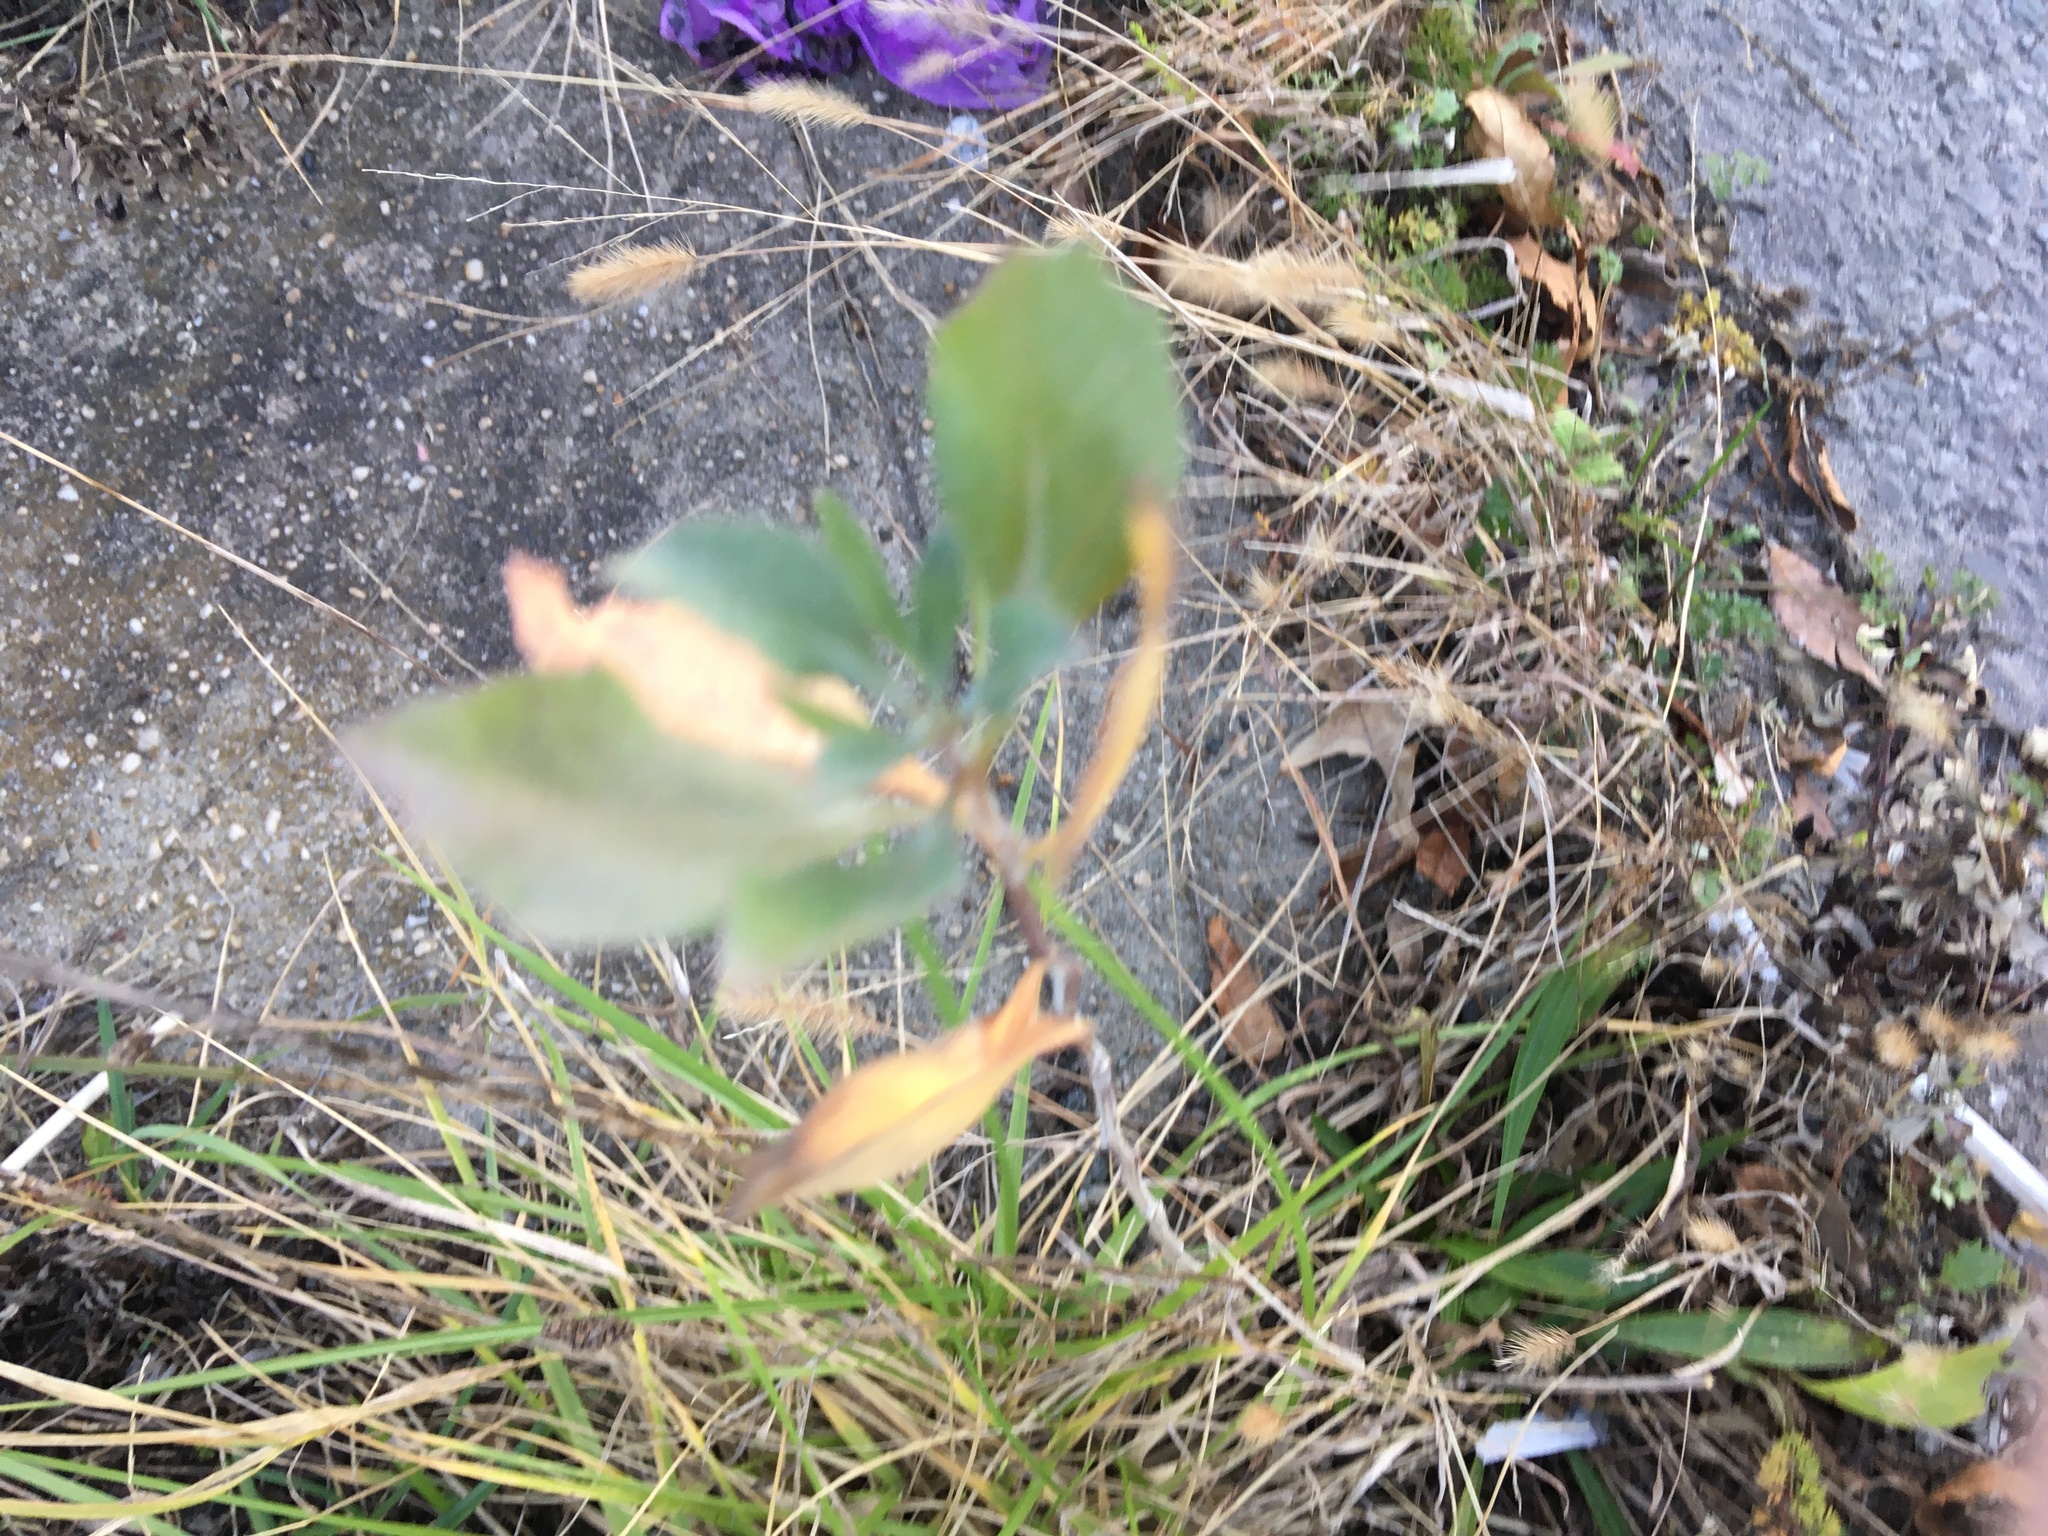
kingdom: Plantae
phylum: Tracheophyta
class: Magnoliopsida
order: Asterales
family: Asteraceae
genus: Baccharis
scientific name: Baccharis halimifolia
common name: Eastern baccharis
